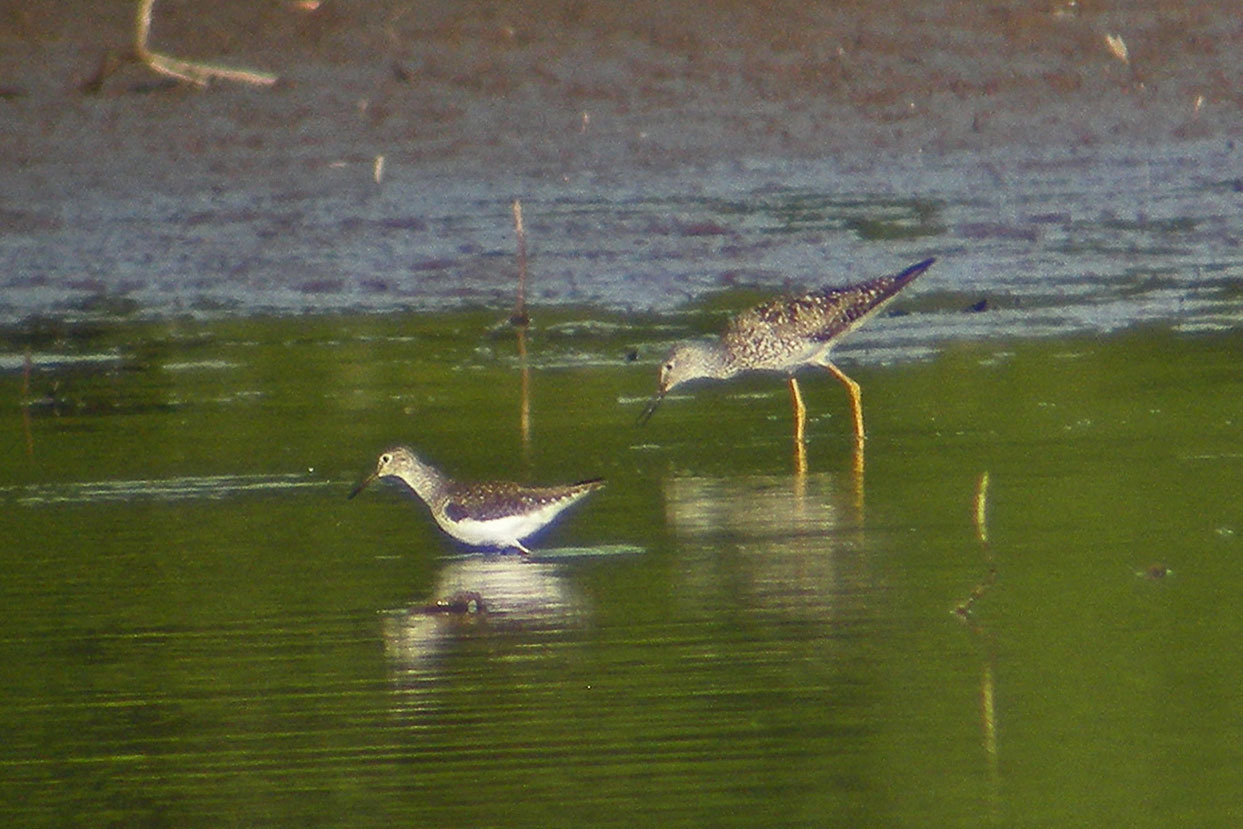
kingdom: Animalia
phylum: Chordata
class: Aves
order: Charadriiformes
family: Scolopacidae
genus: Tringa
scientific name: Tringa flavipes
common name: Lesser yellowlegs
